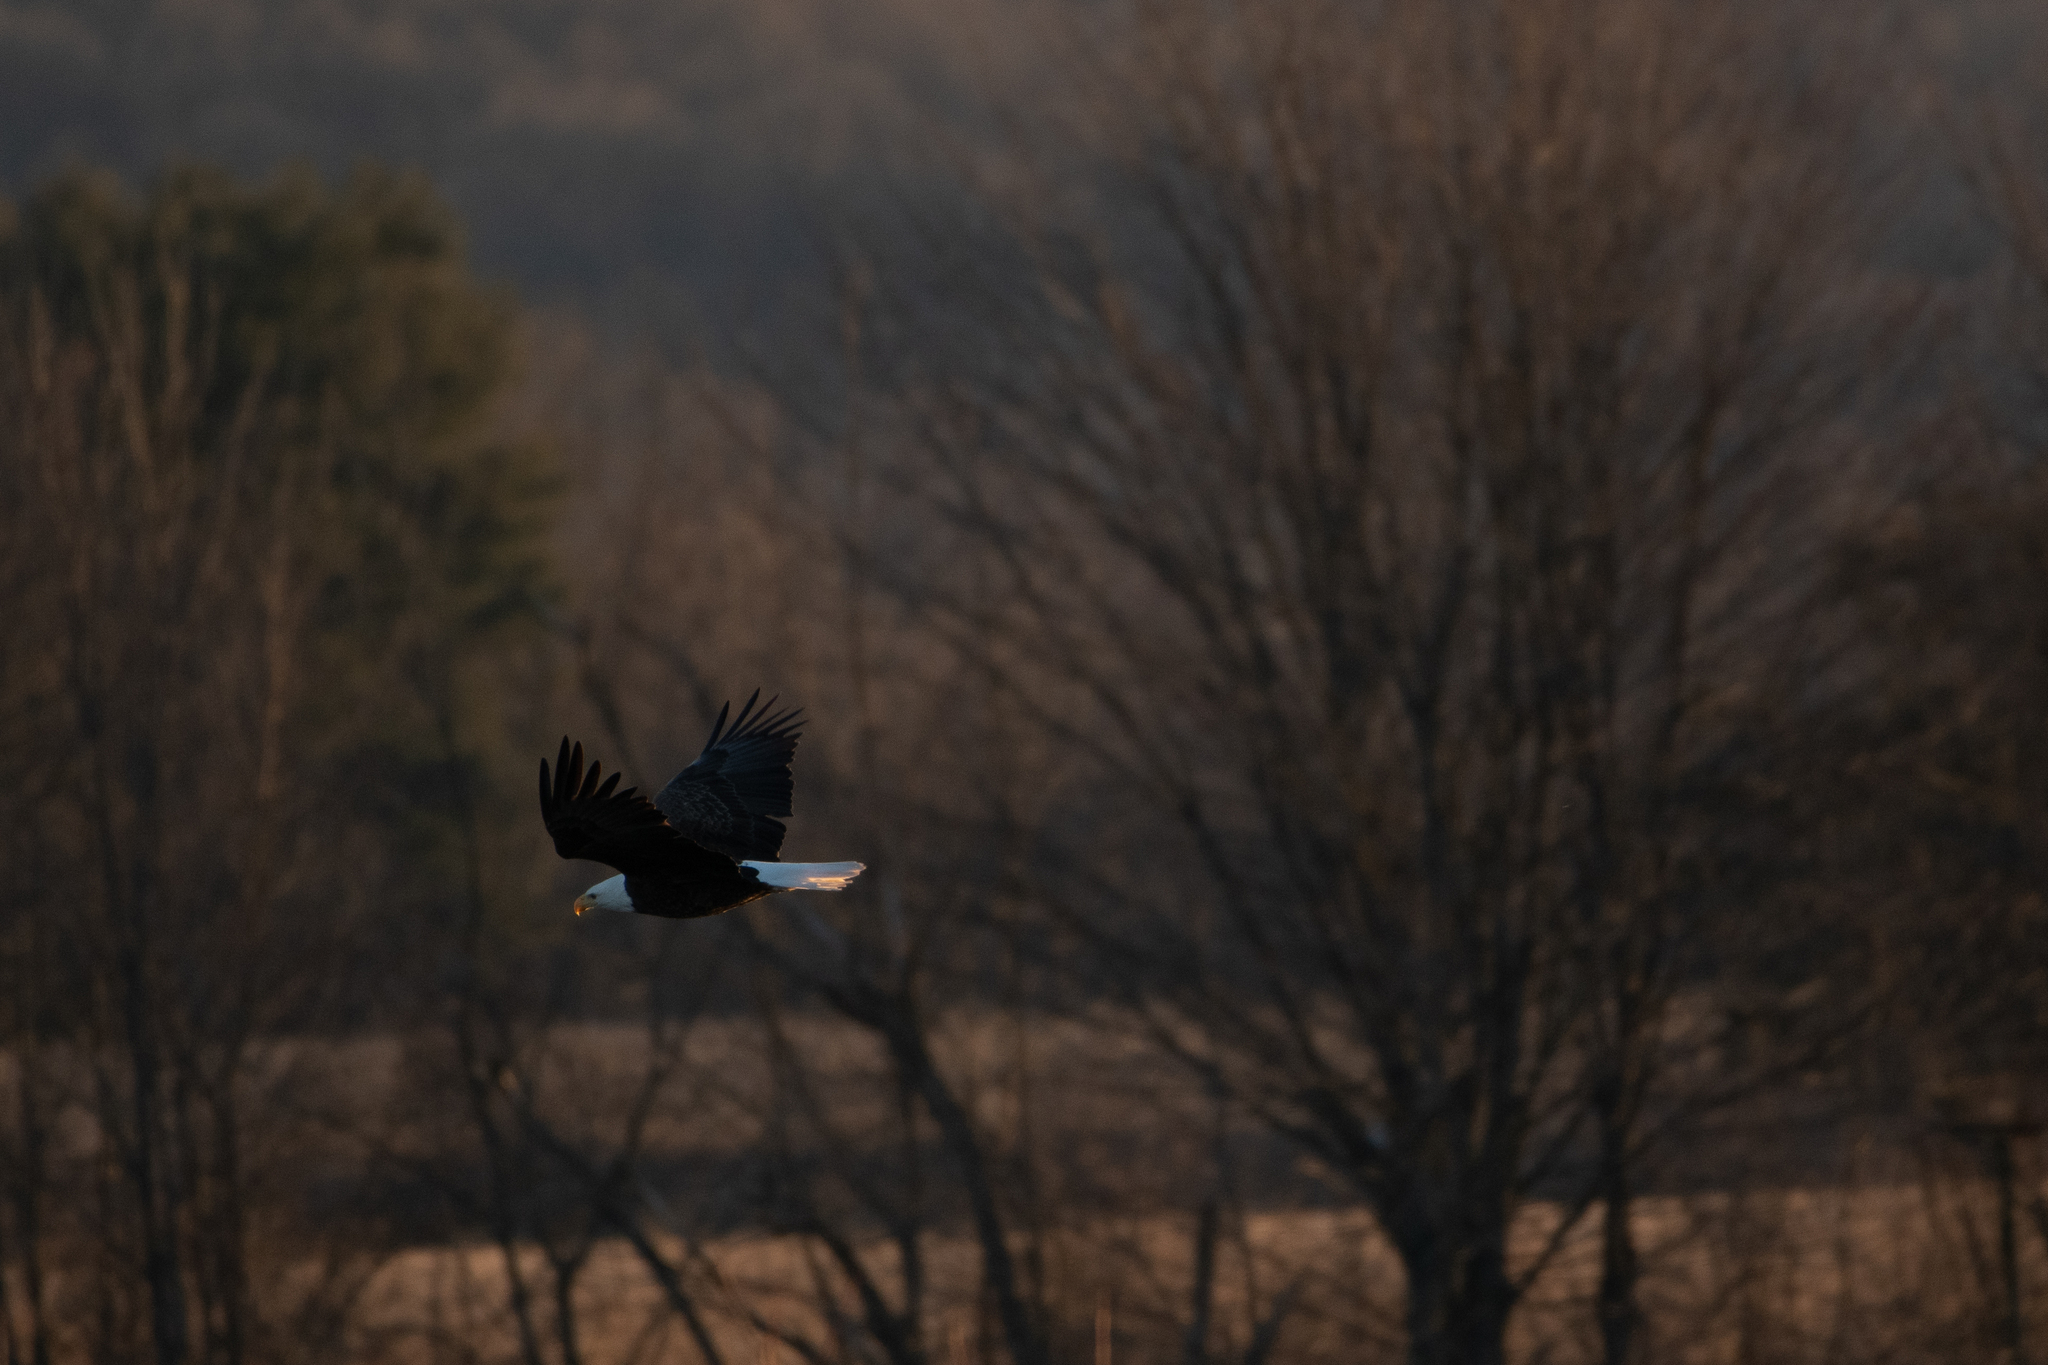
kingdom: Animalia
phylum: Chordata
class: Aves
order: Accipitriformes
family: Accipitridae
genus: Haliaeetus
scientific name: Haliaeetus leucocephalus
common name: Bald eagle
